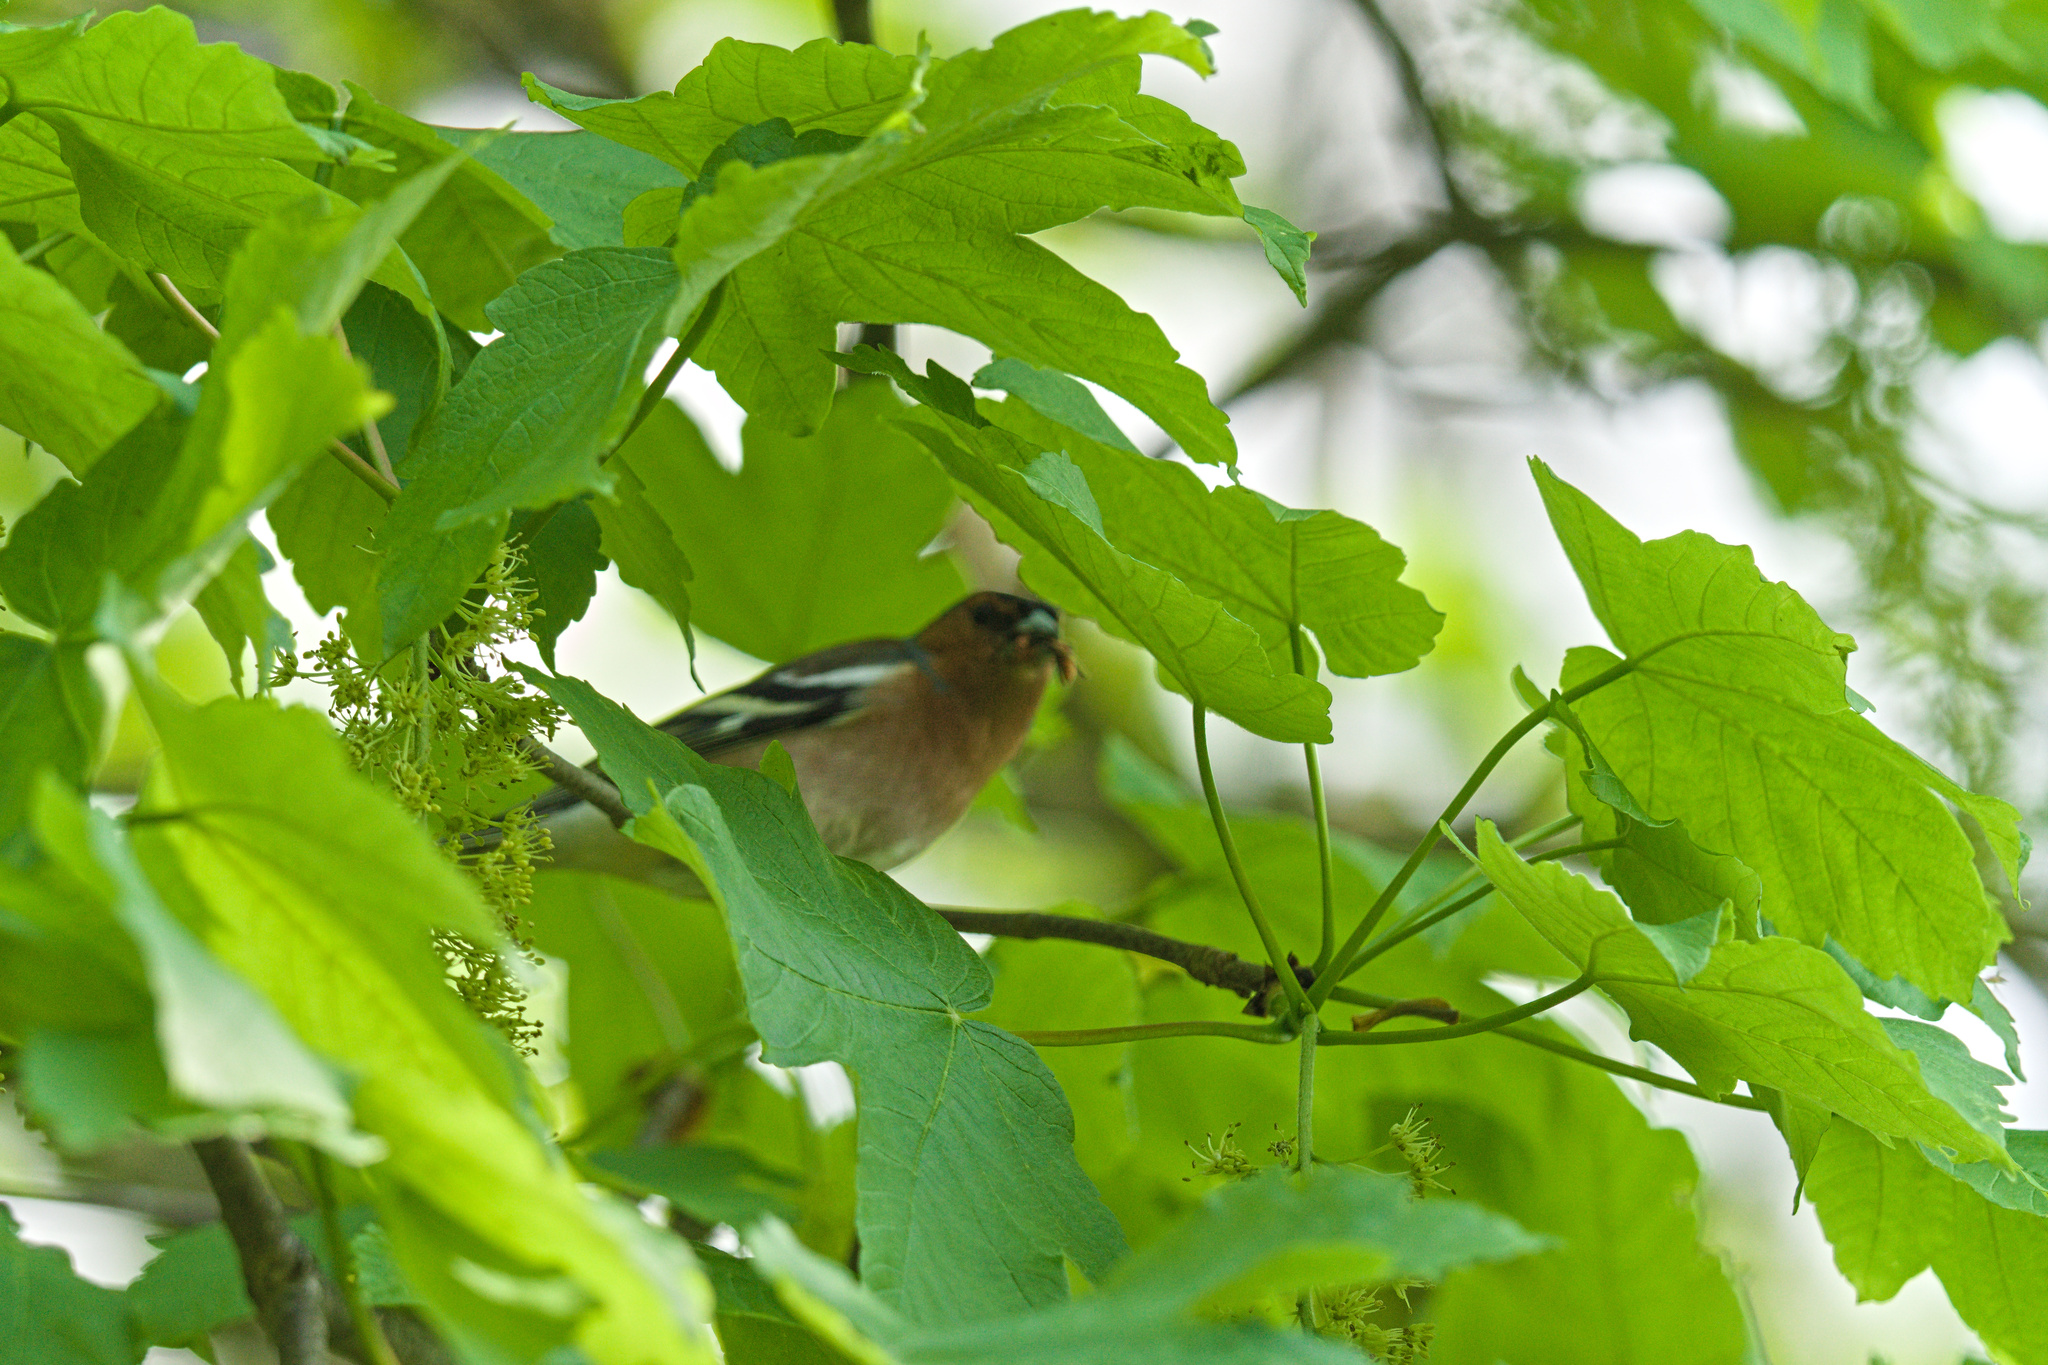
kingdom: Animalia
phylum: Chordata
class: Aves
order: Passeriformes
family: Fringillidae
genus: Fringilla
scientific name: Fringilla coelebs
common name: Common chaffinch
